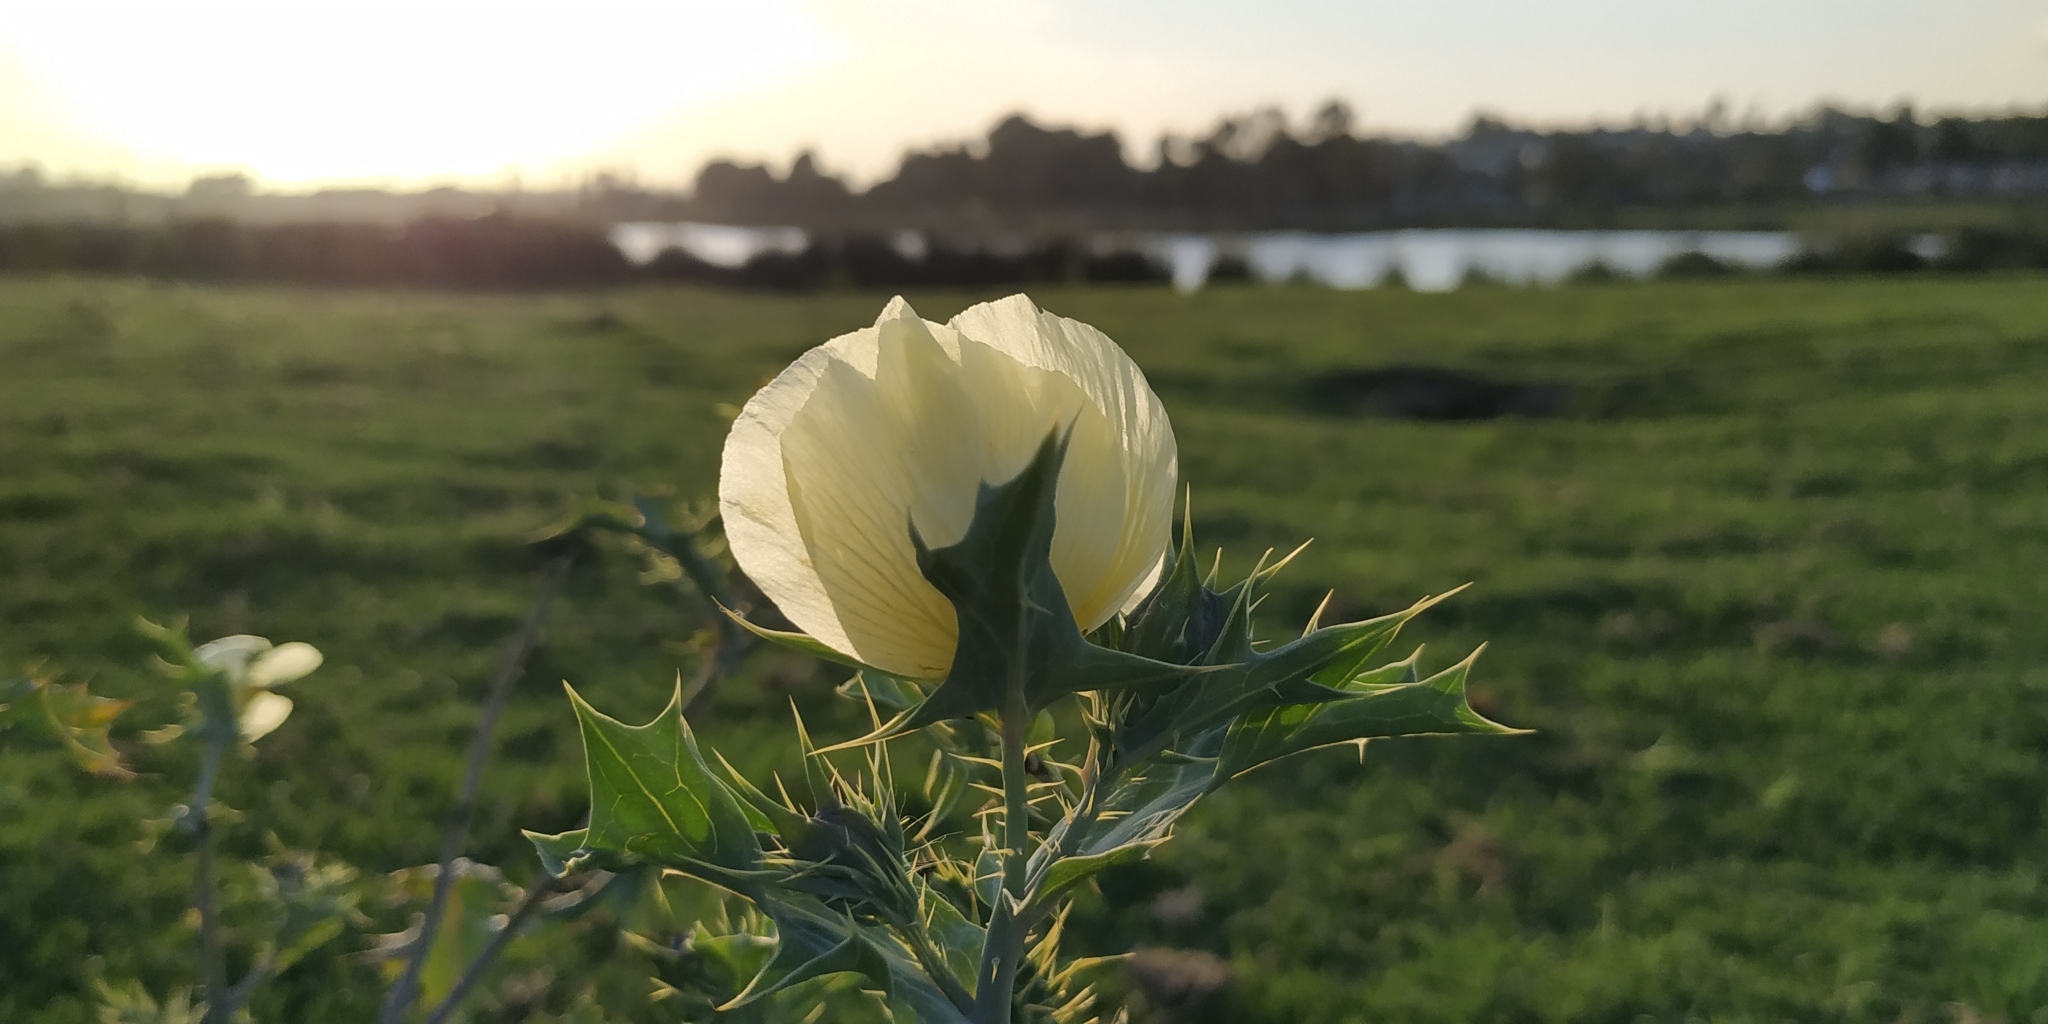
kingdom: Plantae
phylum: Tracheophyta
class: Magnoliopsida
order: Ranunculales
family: Papaveraceae
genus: Argemone
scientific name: Argemone ochroleuca
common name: White-flower mexican-poppy
